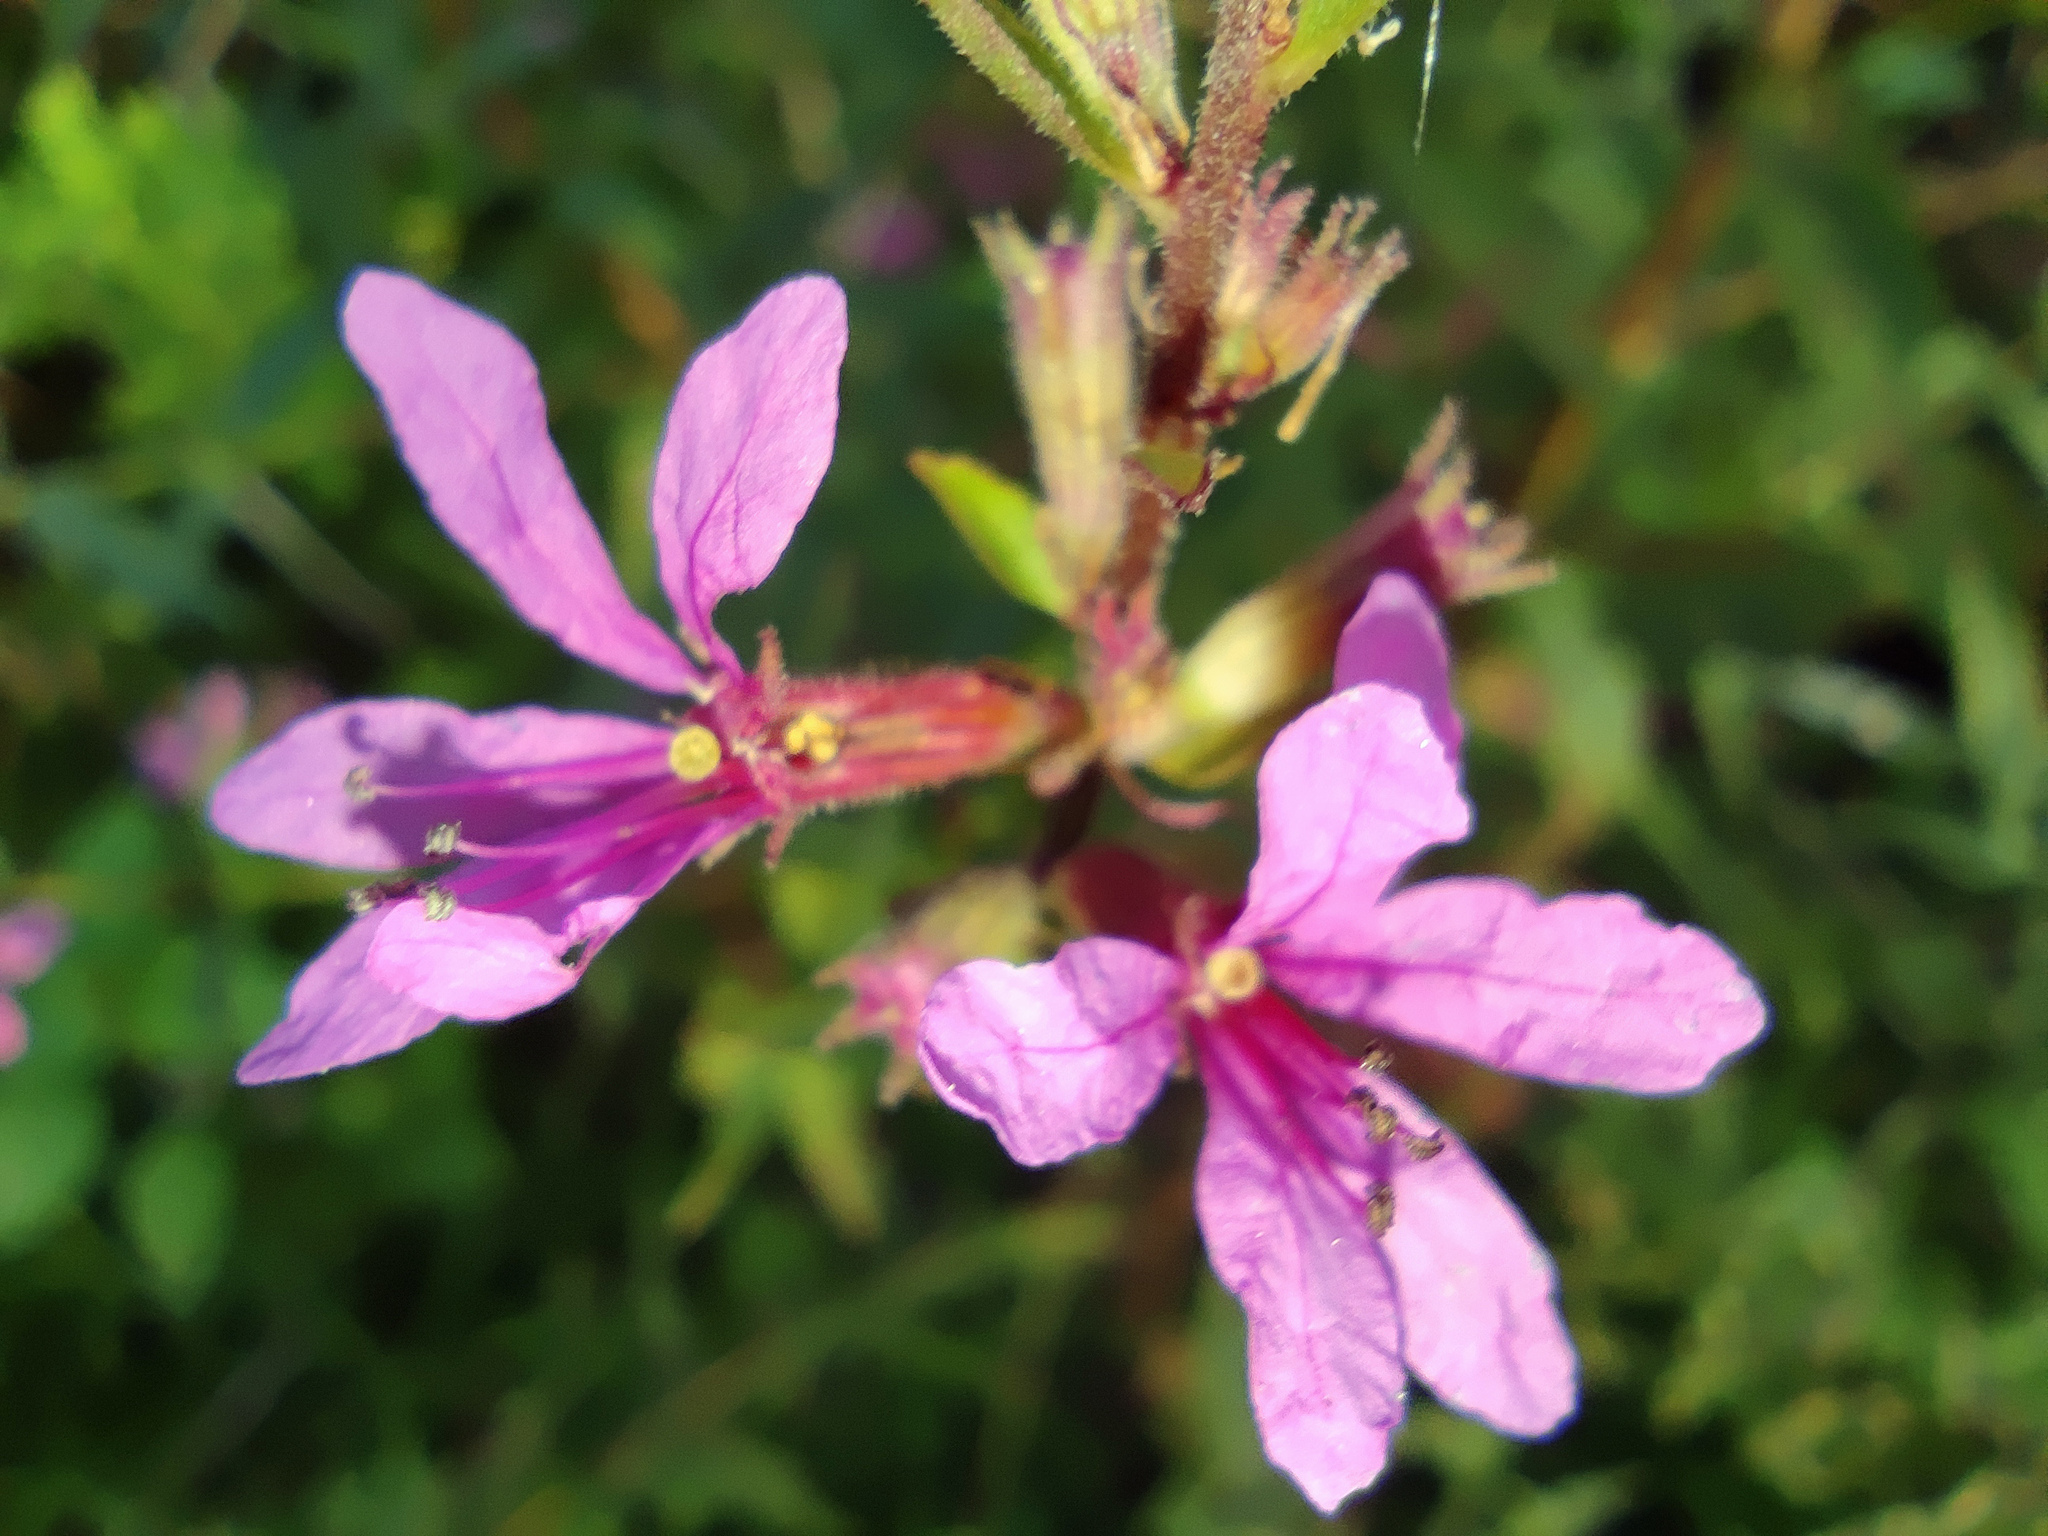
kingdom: Plantae
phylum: Tracheophyta
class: Magnoliopsida
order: Myrtales
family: Lythraceae
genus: Lythrum
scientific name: Lythrum salicaria
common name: Purple loosestrife
